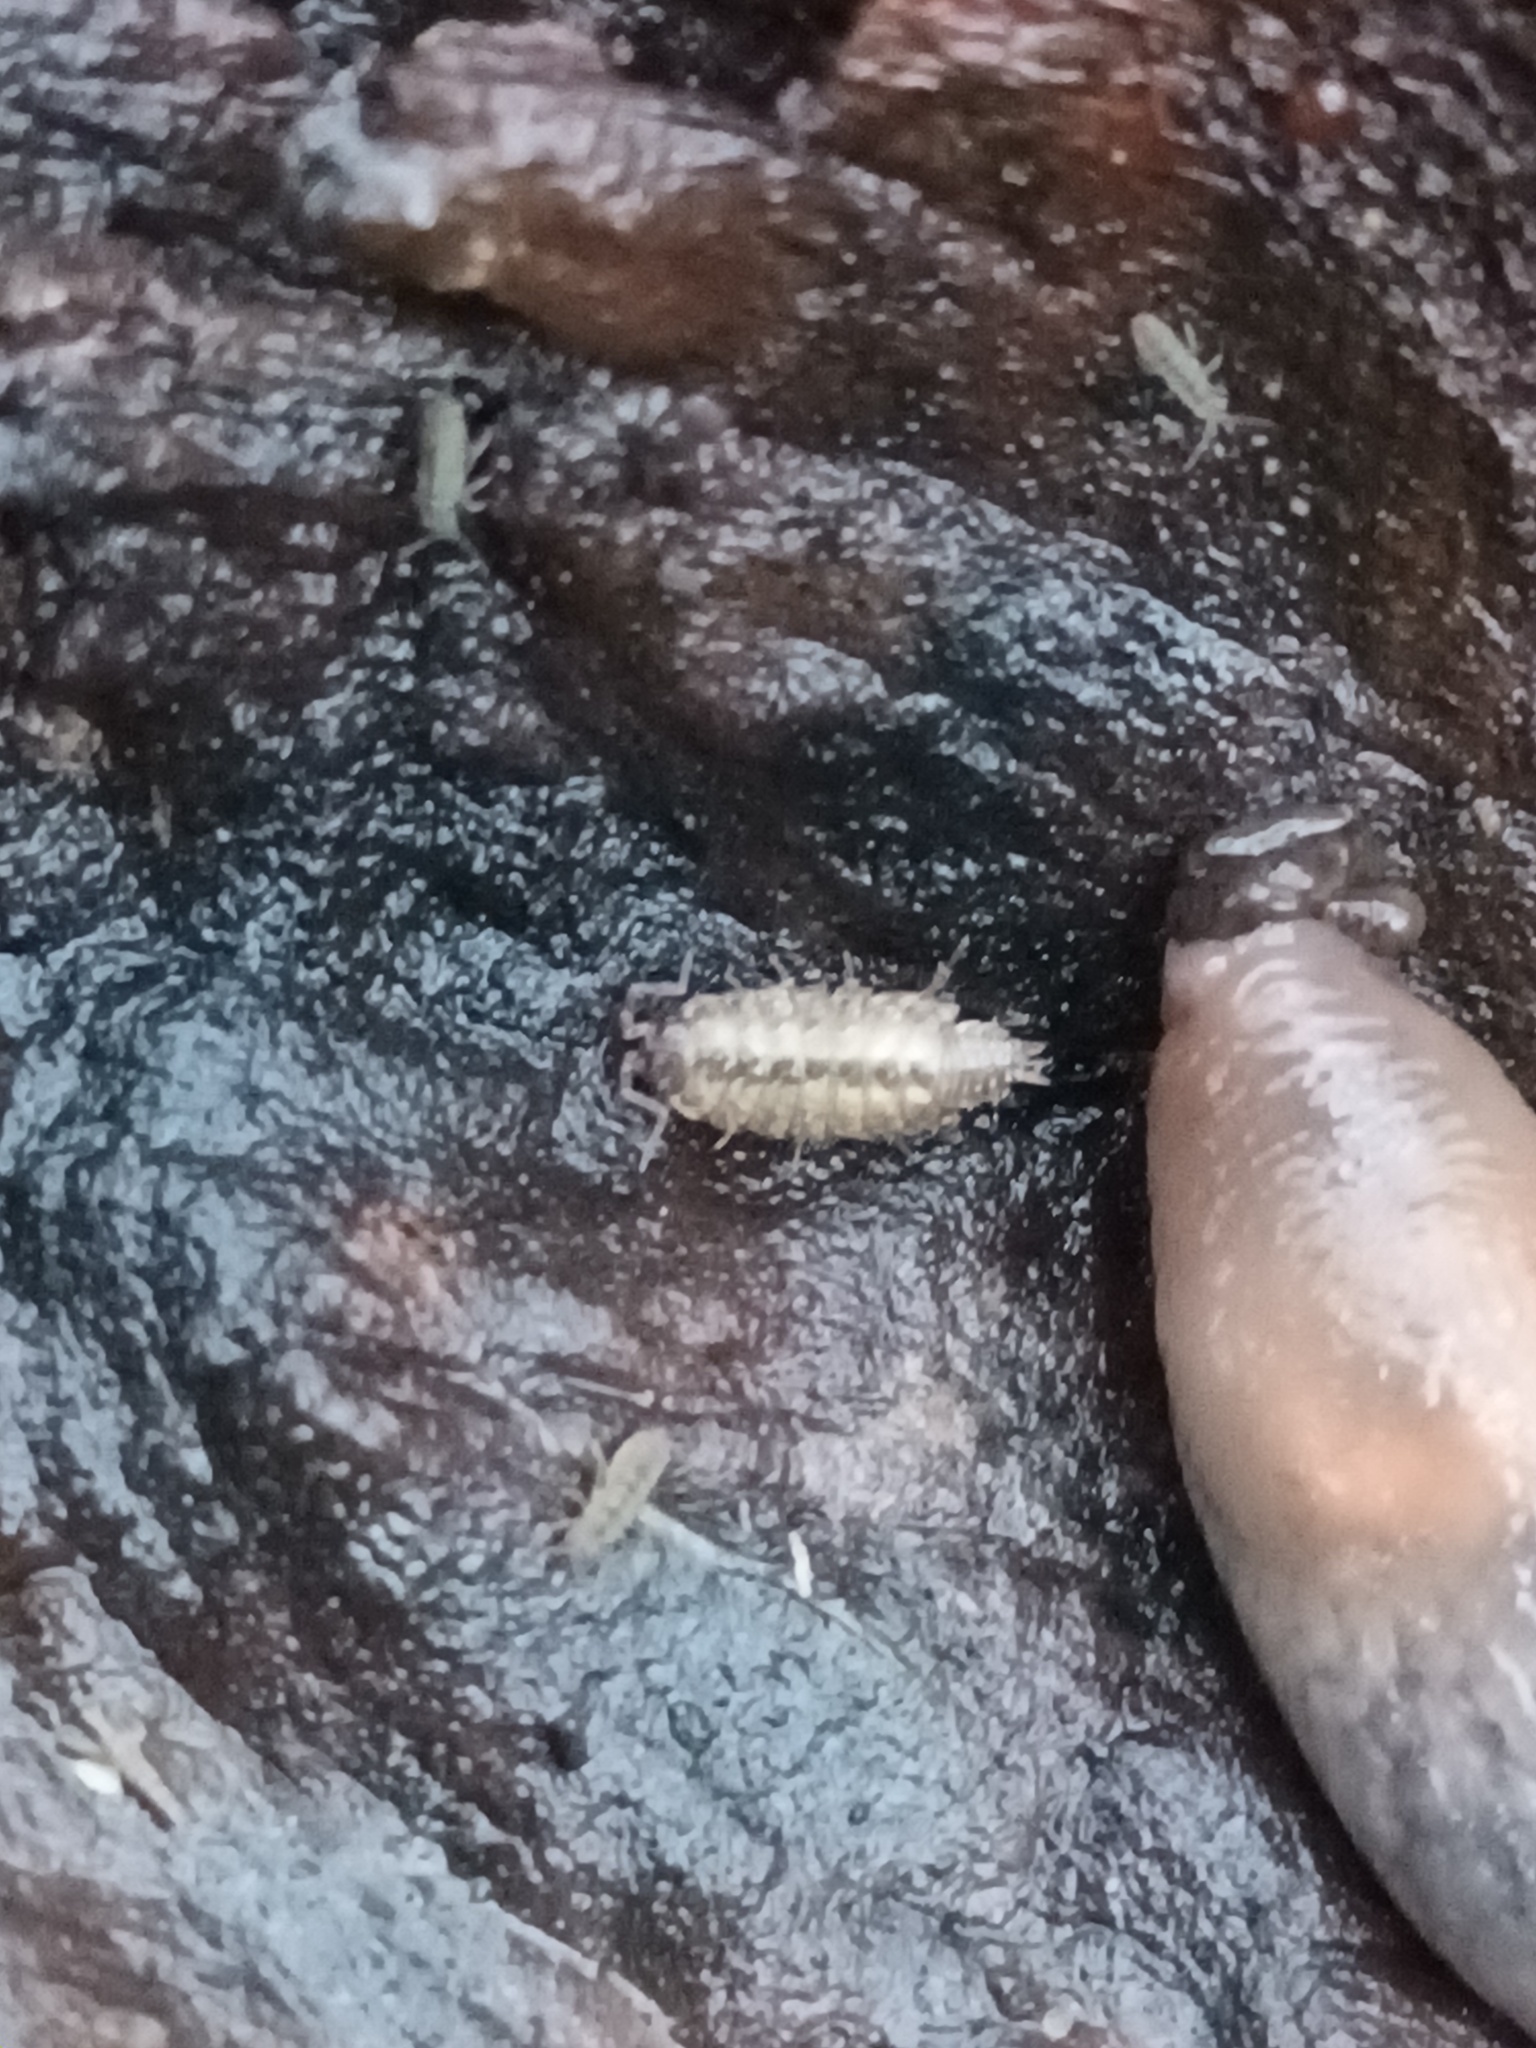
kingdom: Animalia
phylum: Arthropoda
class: Malacostraca
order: Isopoda
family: Philosciidae
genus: Philoscia
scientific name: Philoscia muscorum
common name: Common striped woodlouse
